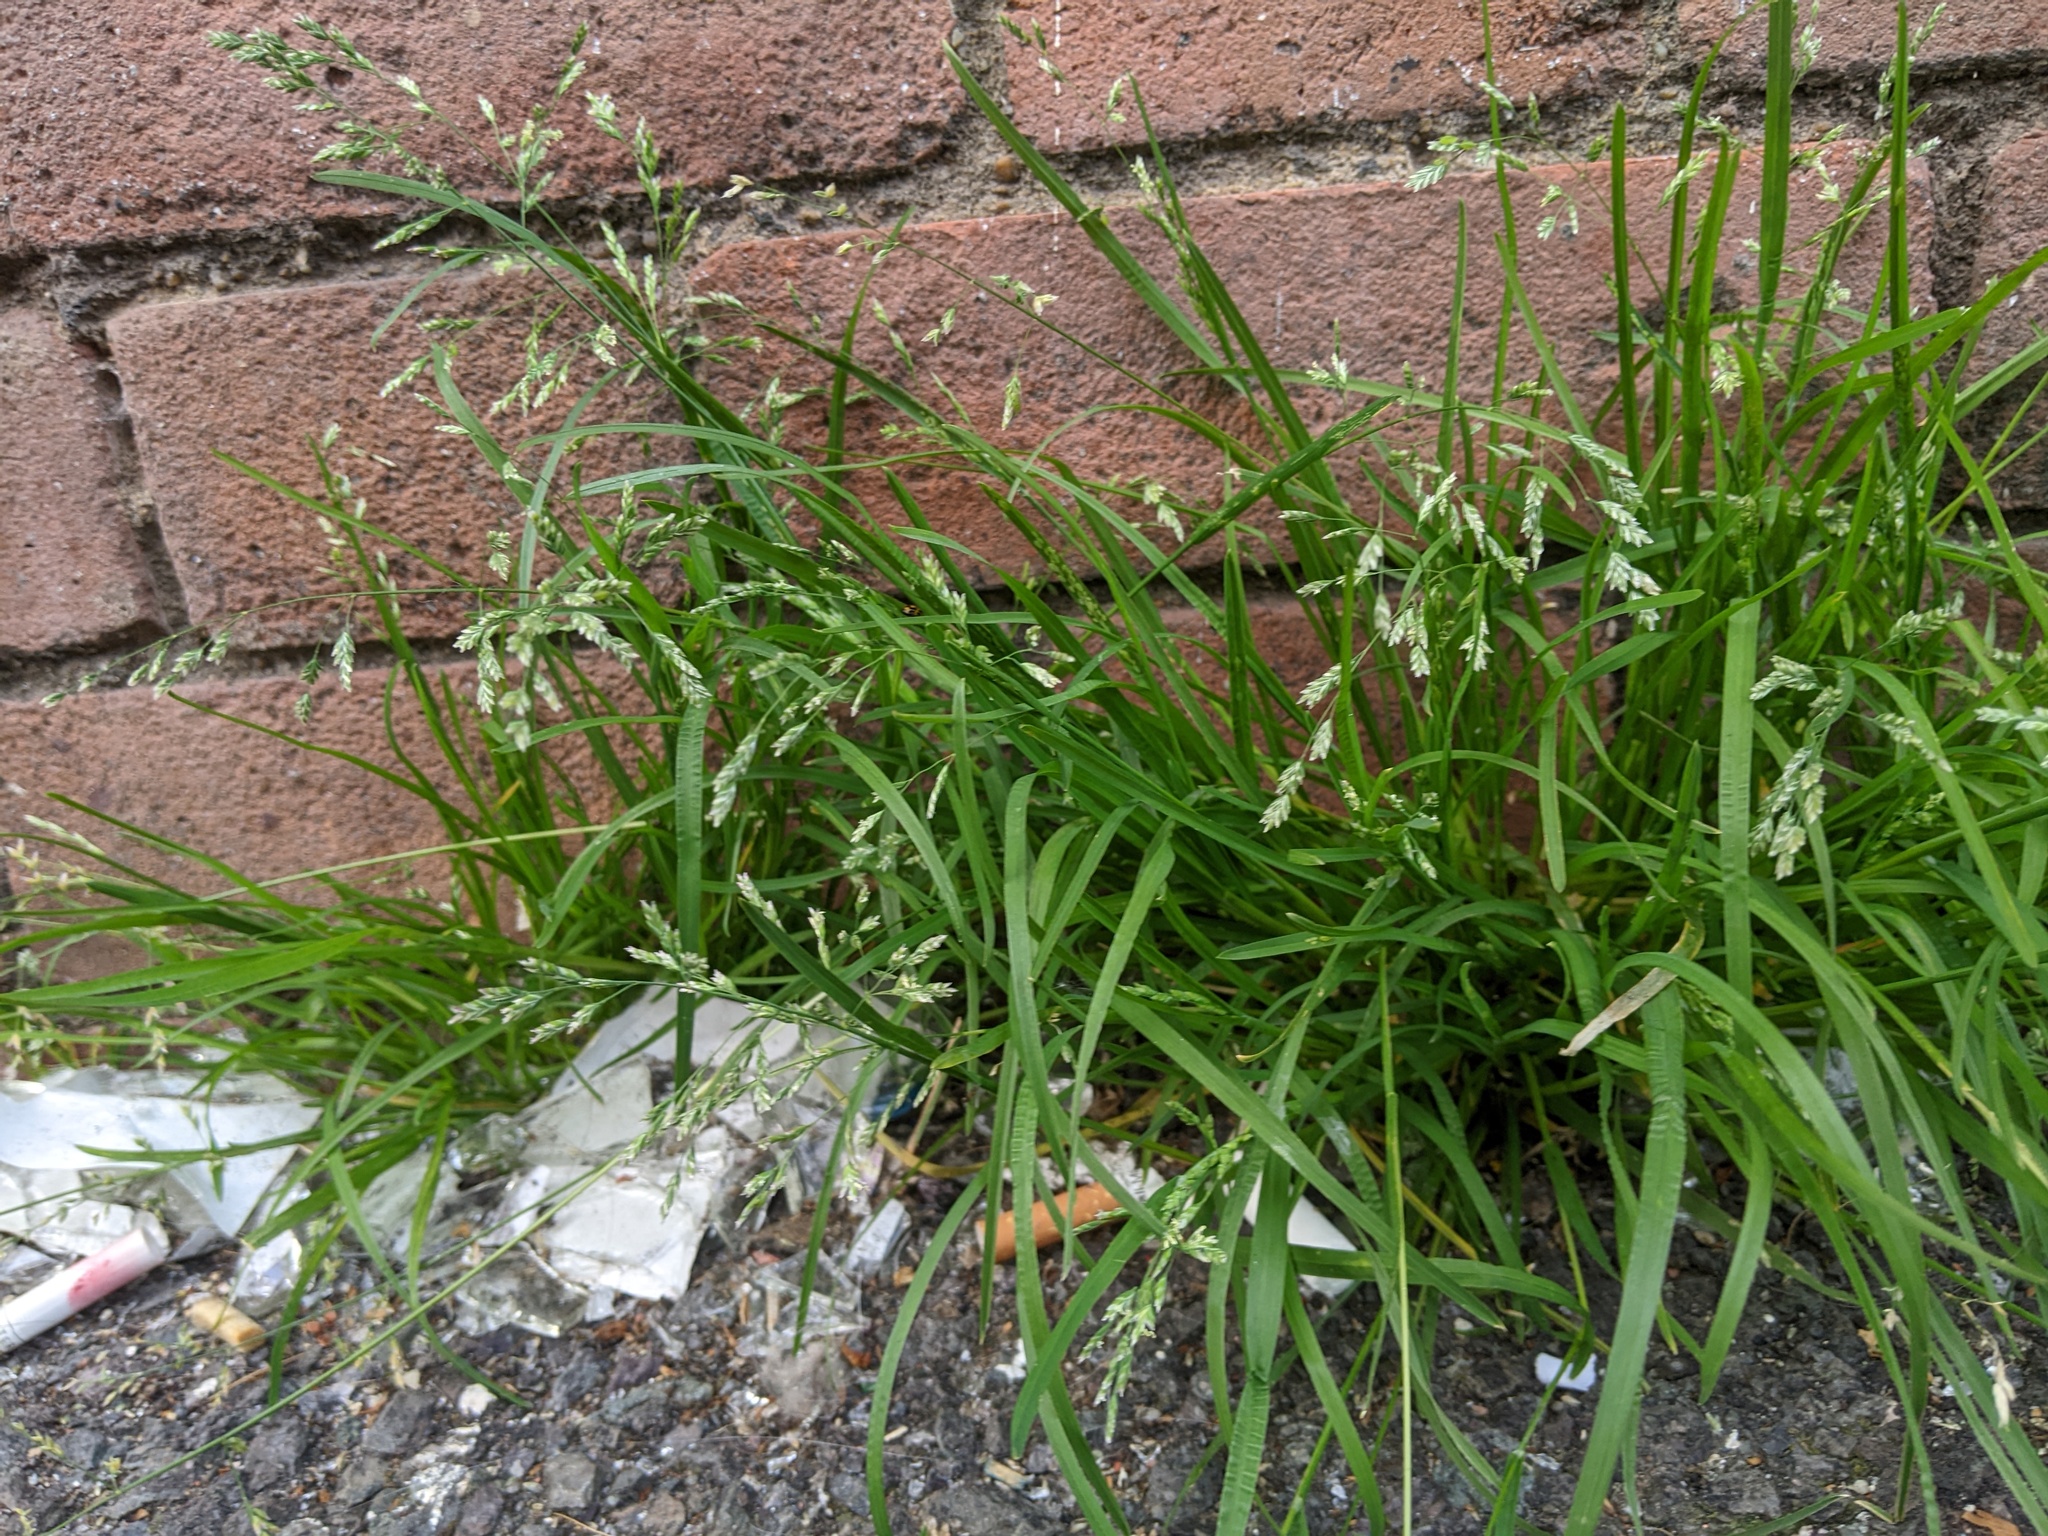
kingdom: Plantae
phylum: Tracheophyta
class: Liliopsida
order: Poales
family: Poaceae
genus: Poa
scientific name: Poa annua
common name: Annual bluegrass
